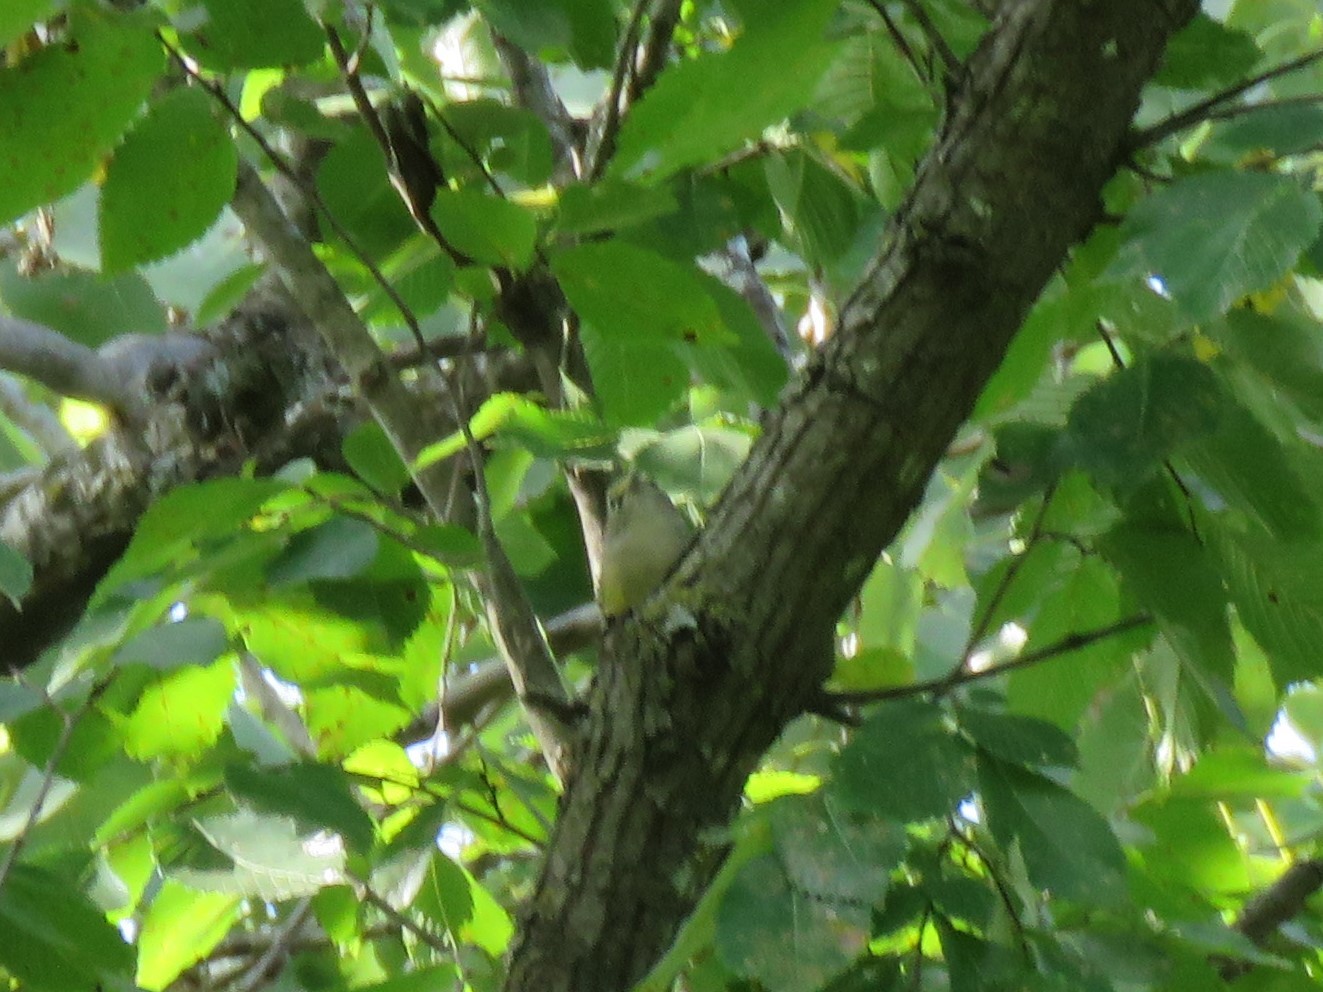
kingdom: Animalia
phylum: Chordata
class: Aves
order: Passeriformes
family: Vireonidae
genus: Vireo
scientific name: Vireo griseus
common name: White-eyed vireo
